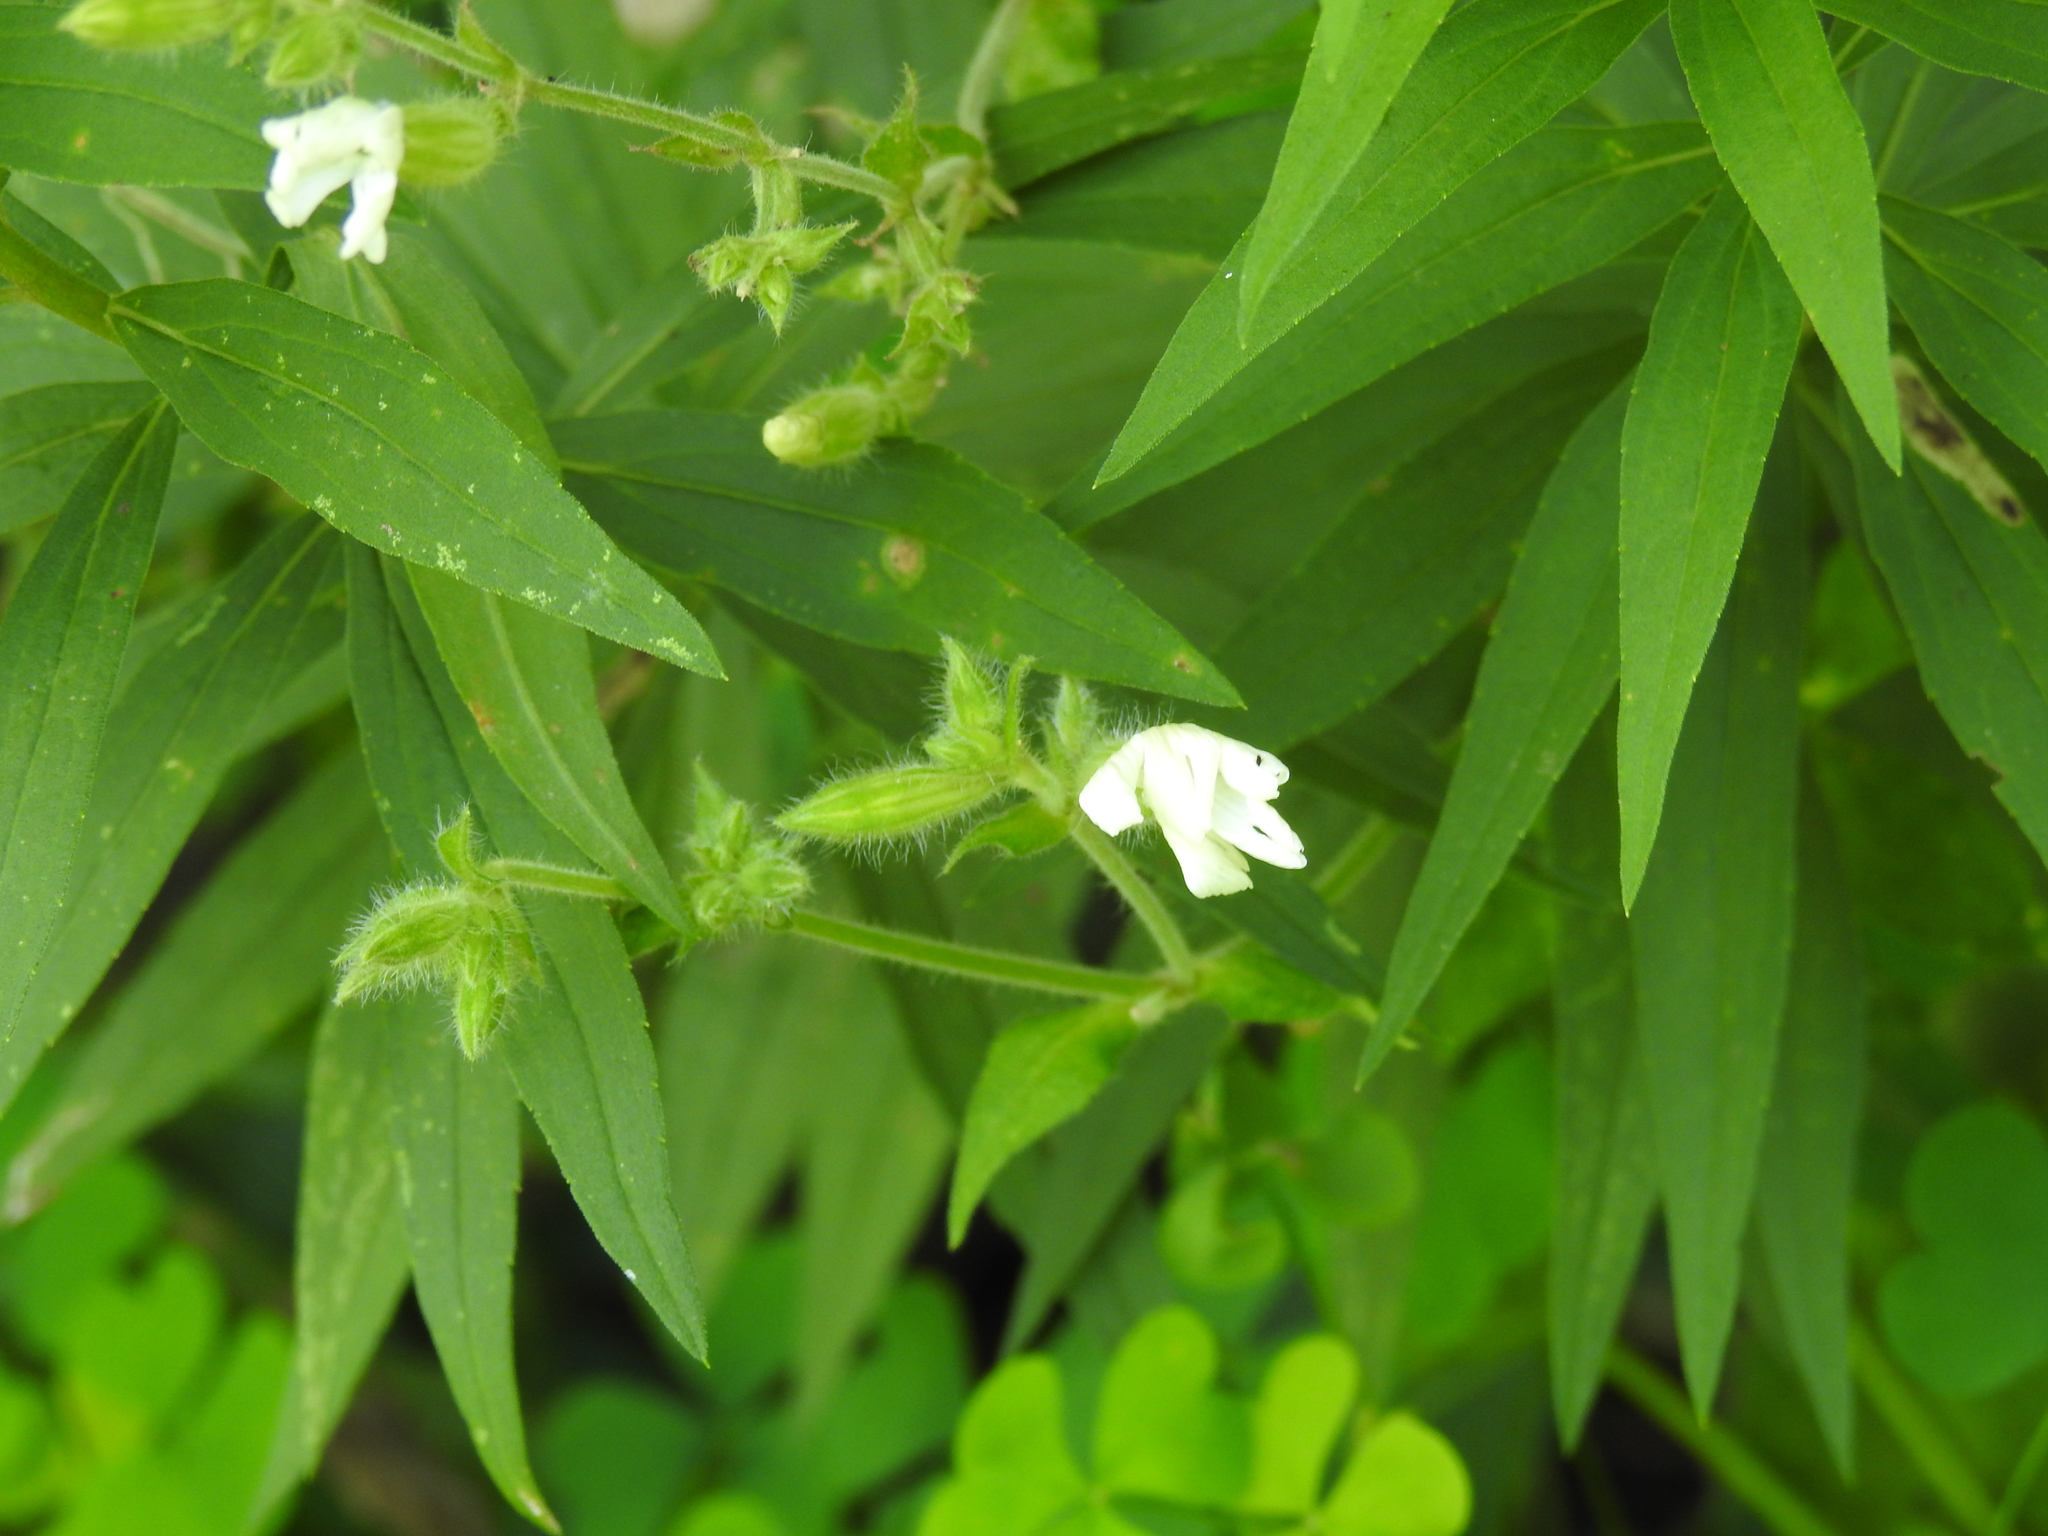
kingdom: Plantae
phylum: Tracheophyta
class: Magnoliopsida
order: Caryophyllales
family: Caryophyllaceae
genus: Silene
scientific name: Silene latifolia
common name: White campion
